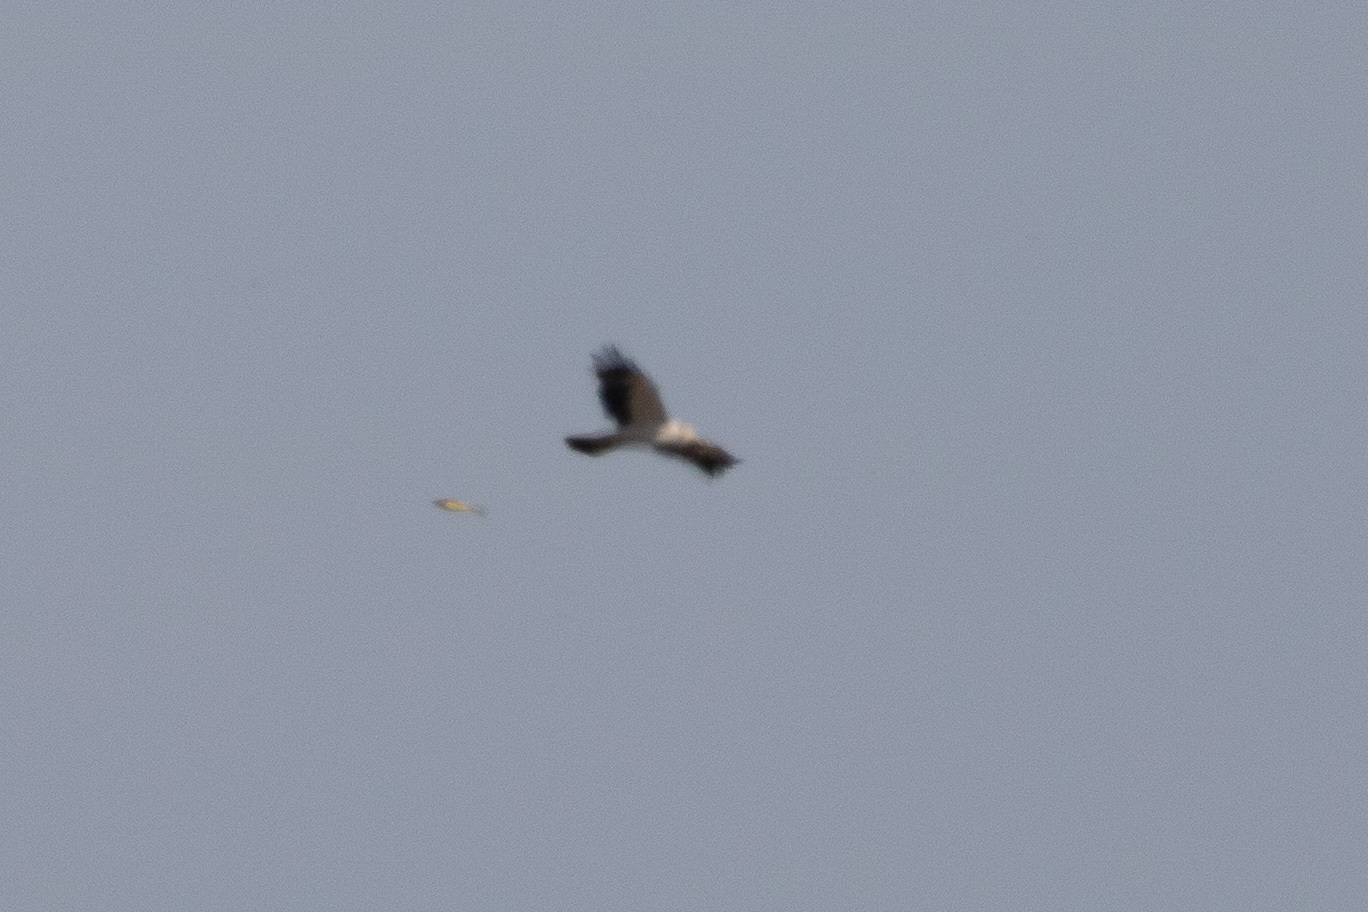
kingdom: Animalia
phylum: Chordata
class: Aves
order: Accipitriformes
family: Accipitridae
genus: Hieraaetus
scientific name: Hieraaetus pennatus
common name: Booted eagle
